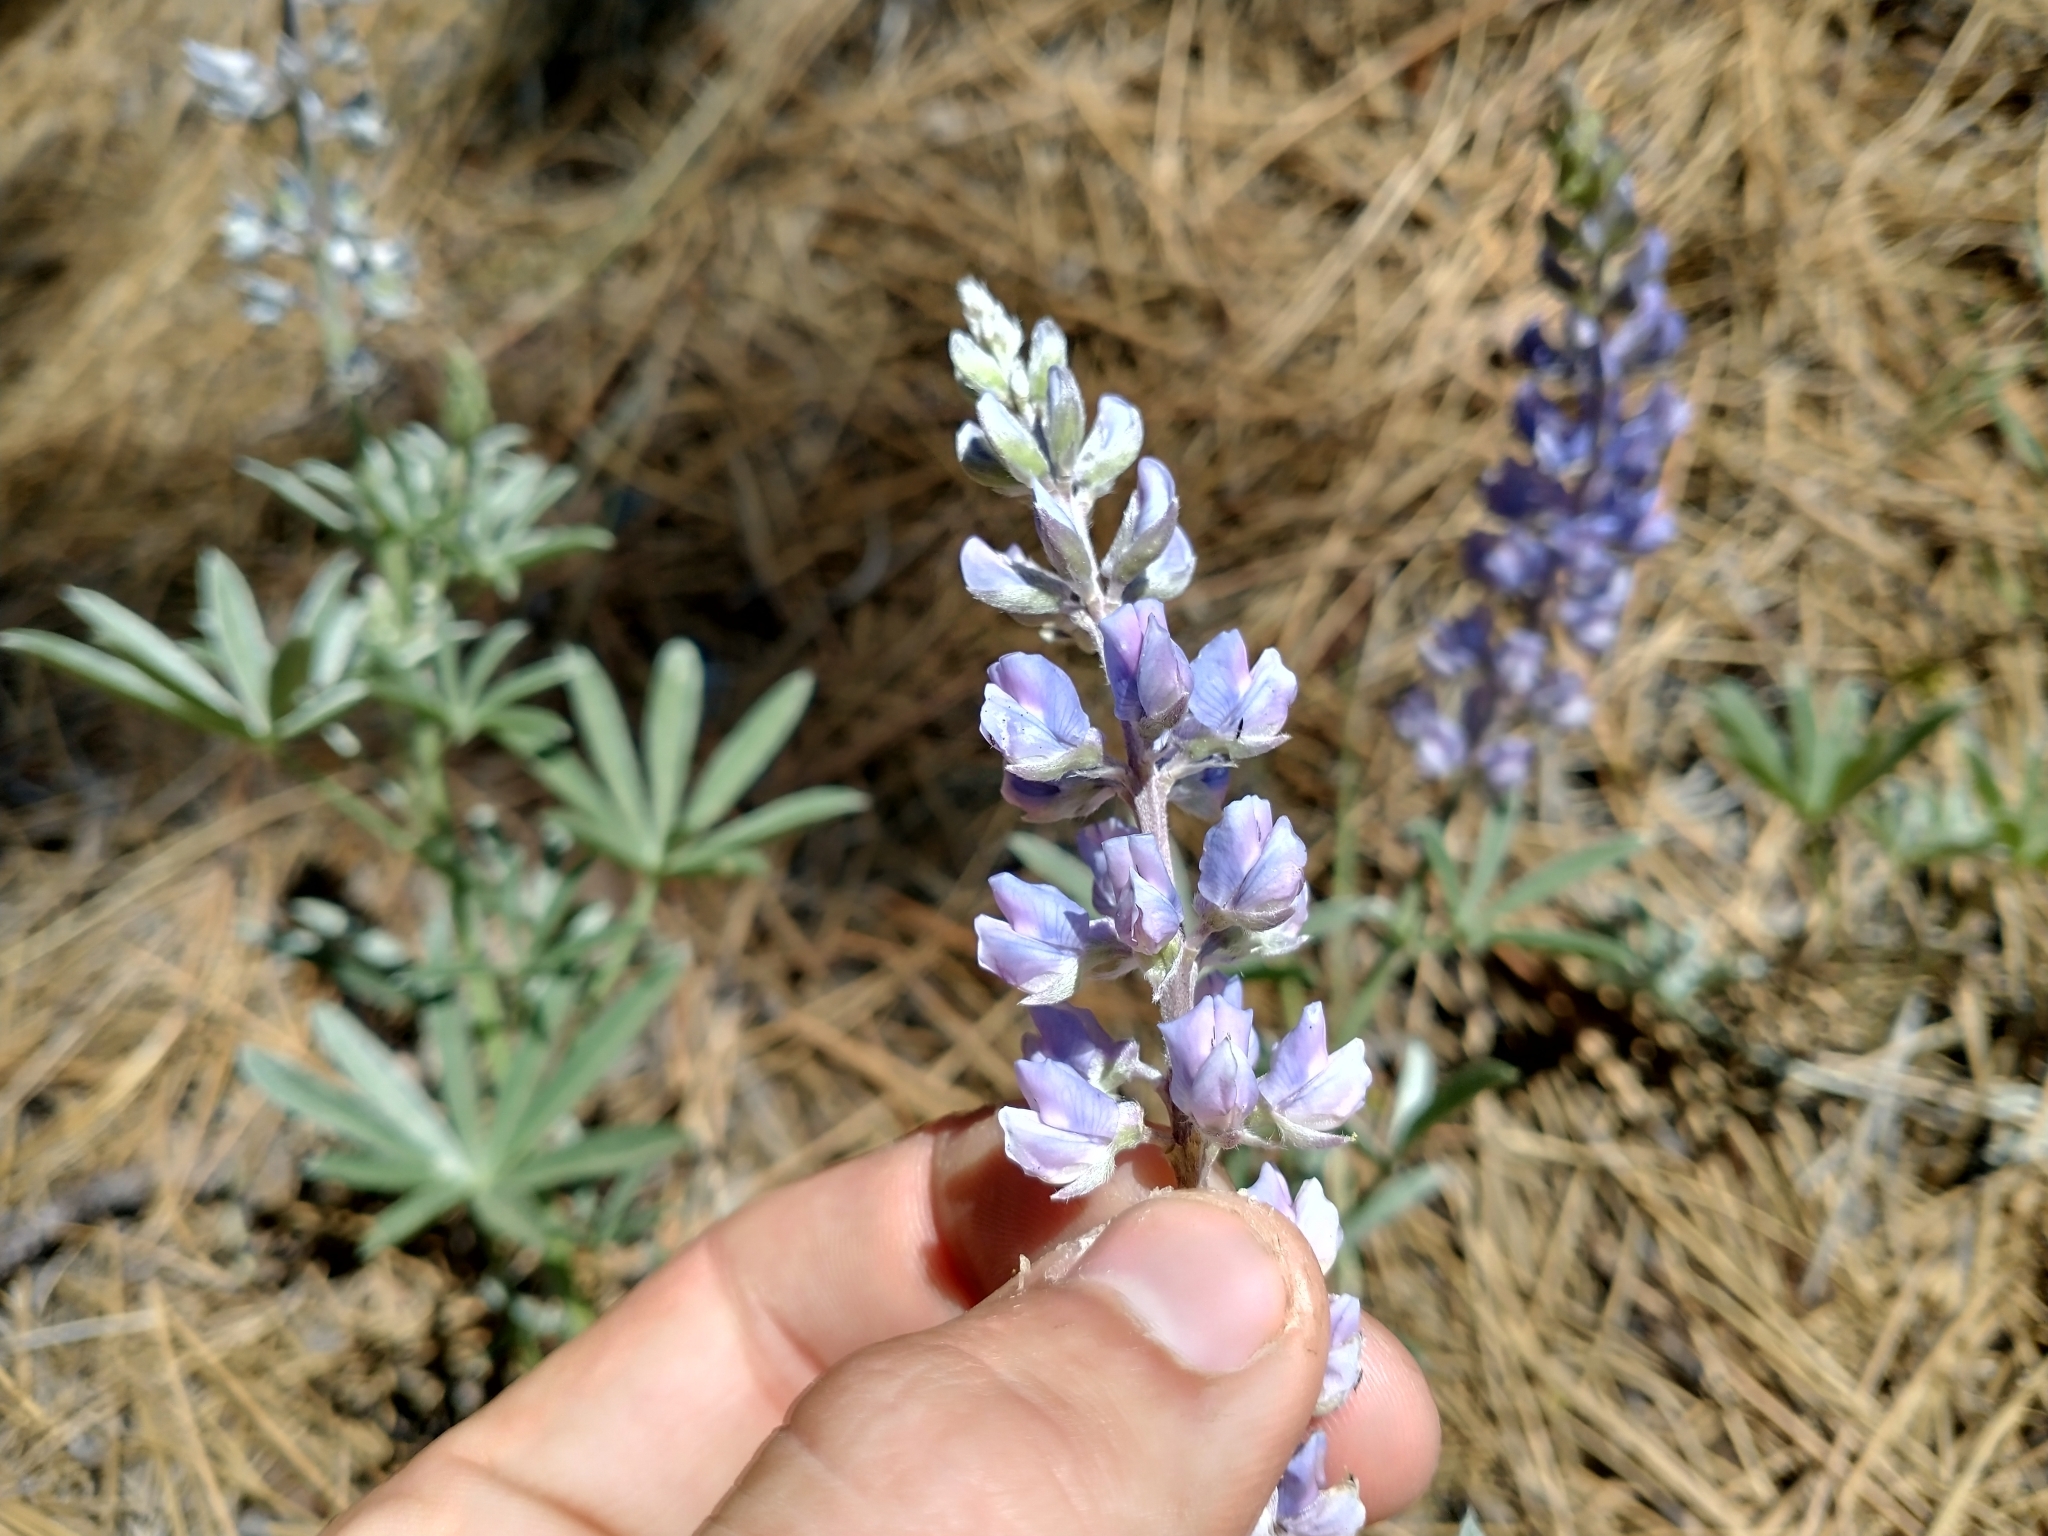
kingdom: Plantae
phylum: Tracheophyta
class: Magnoliopsida
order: Fabales
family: Fabaceae
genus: Lupinus
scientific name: Lupinus argenteus
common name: Silvery lupine
